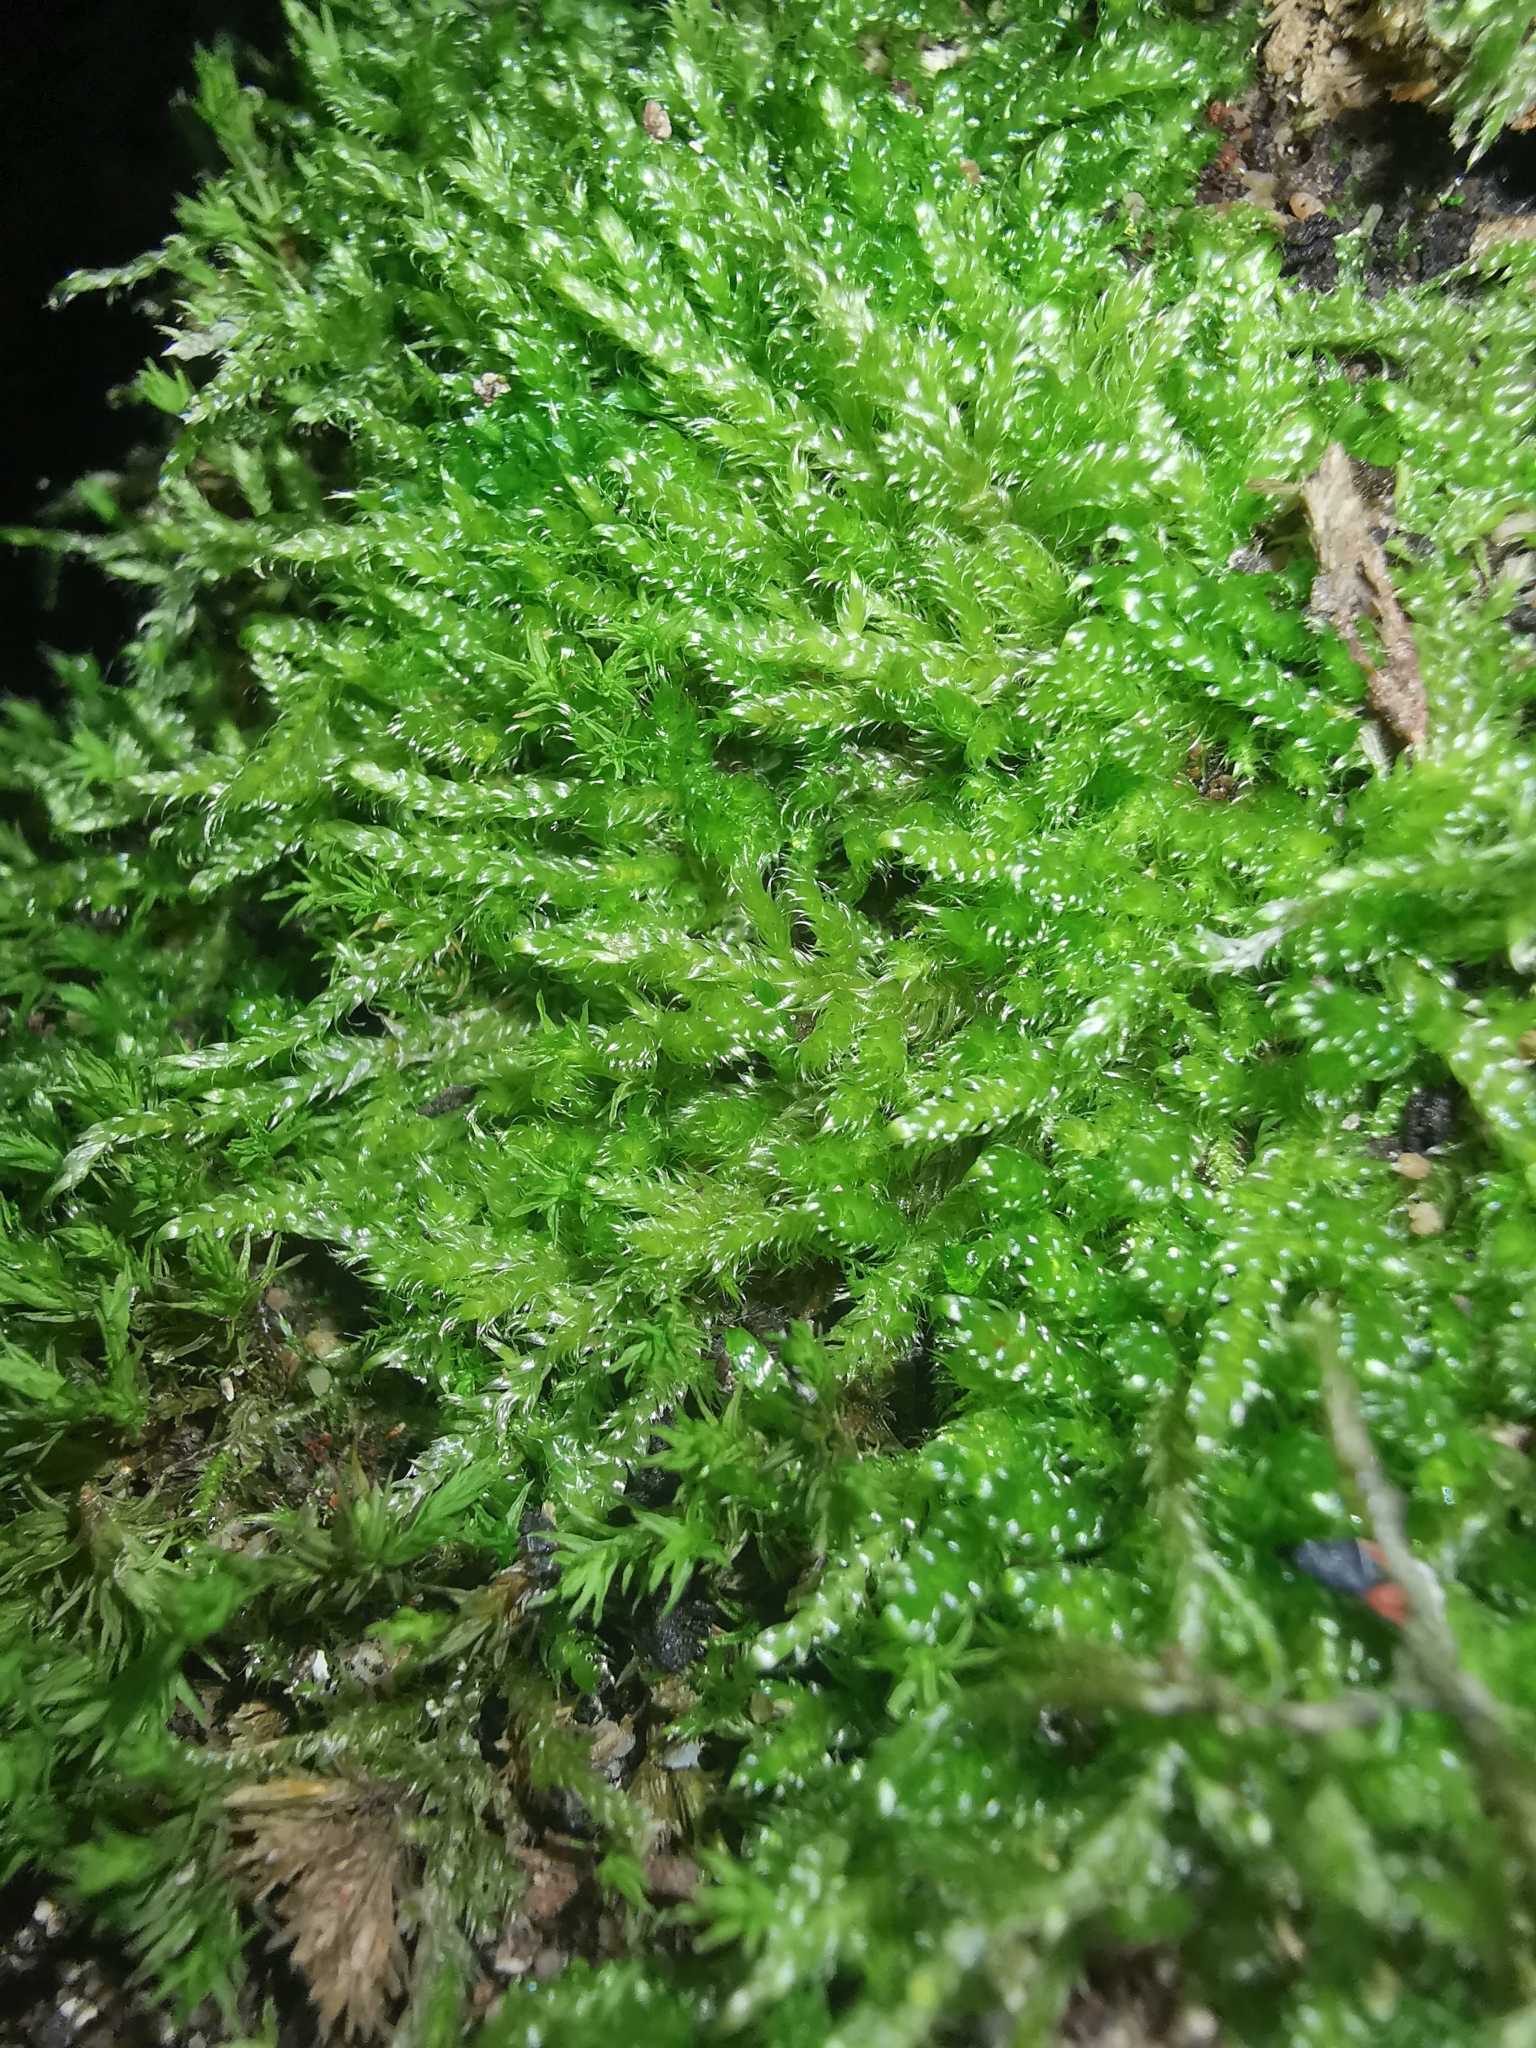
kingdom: Plantae
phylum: Bryophyta
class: Bryopsida
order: Hypnales
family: Hypnaceae
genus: Hypnum
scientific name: Hypnum cupressiforme
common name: Cypress-leaved plait-moss
